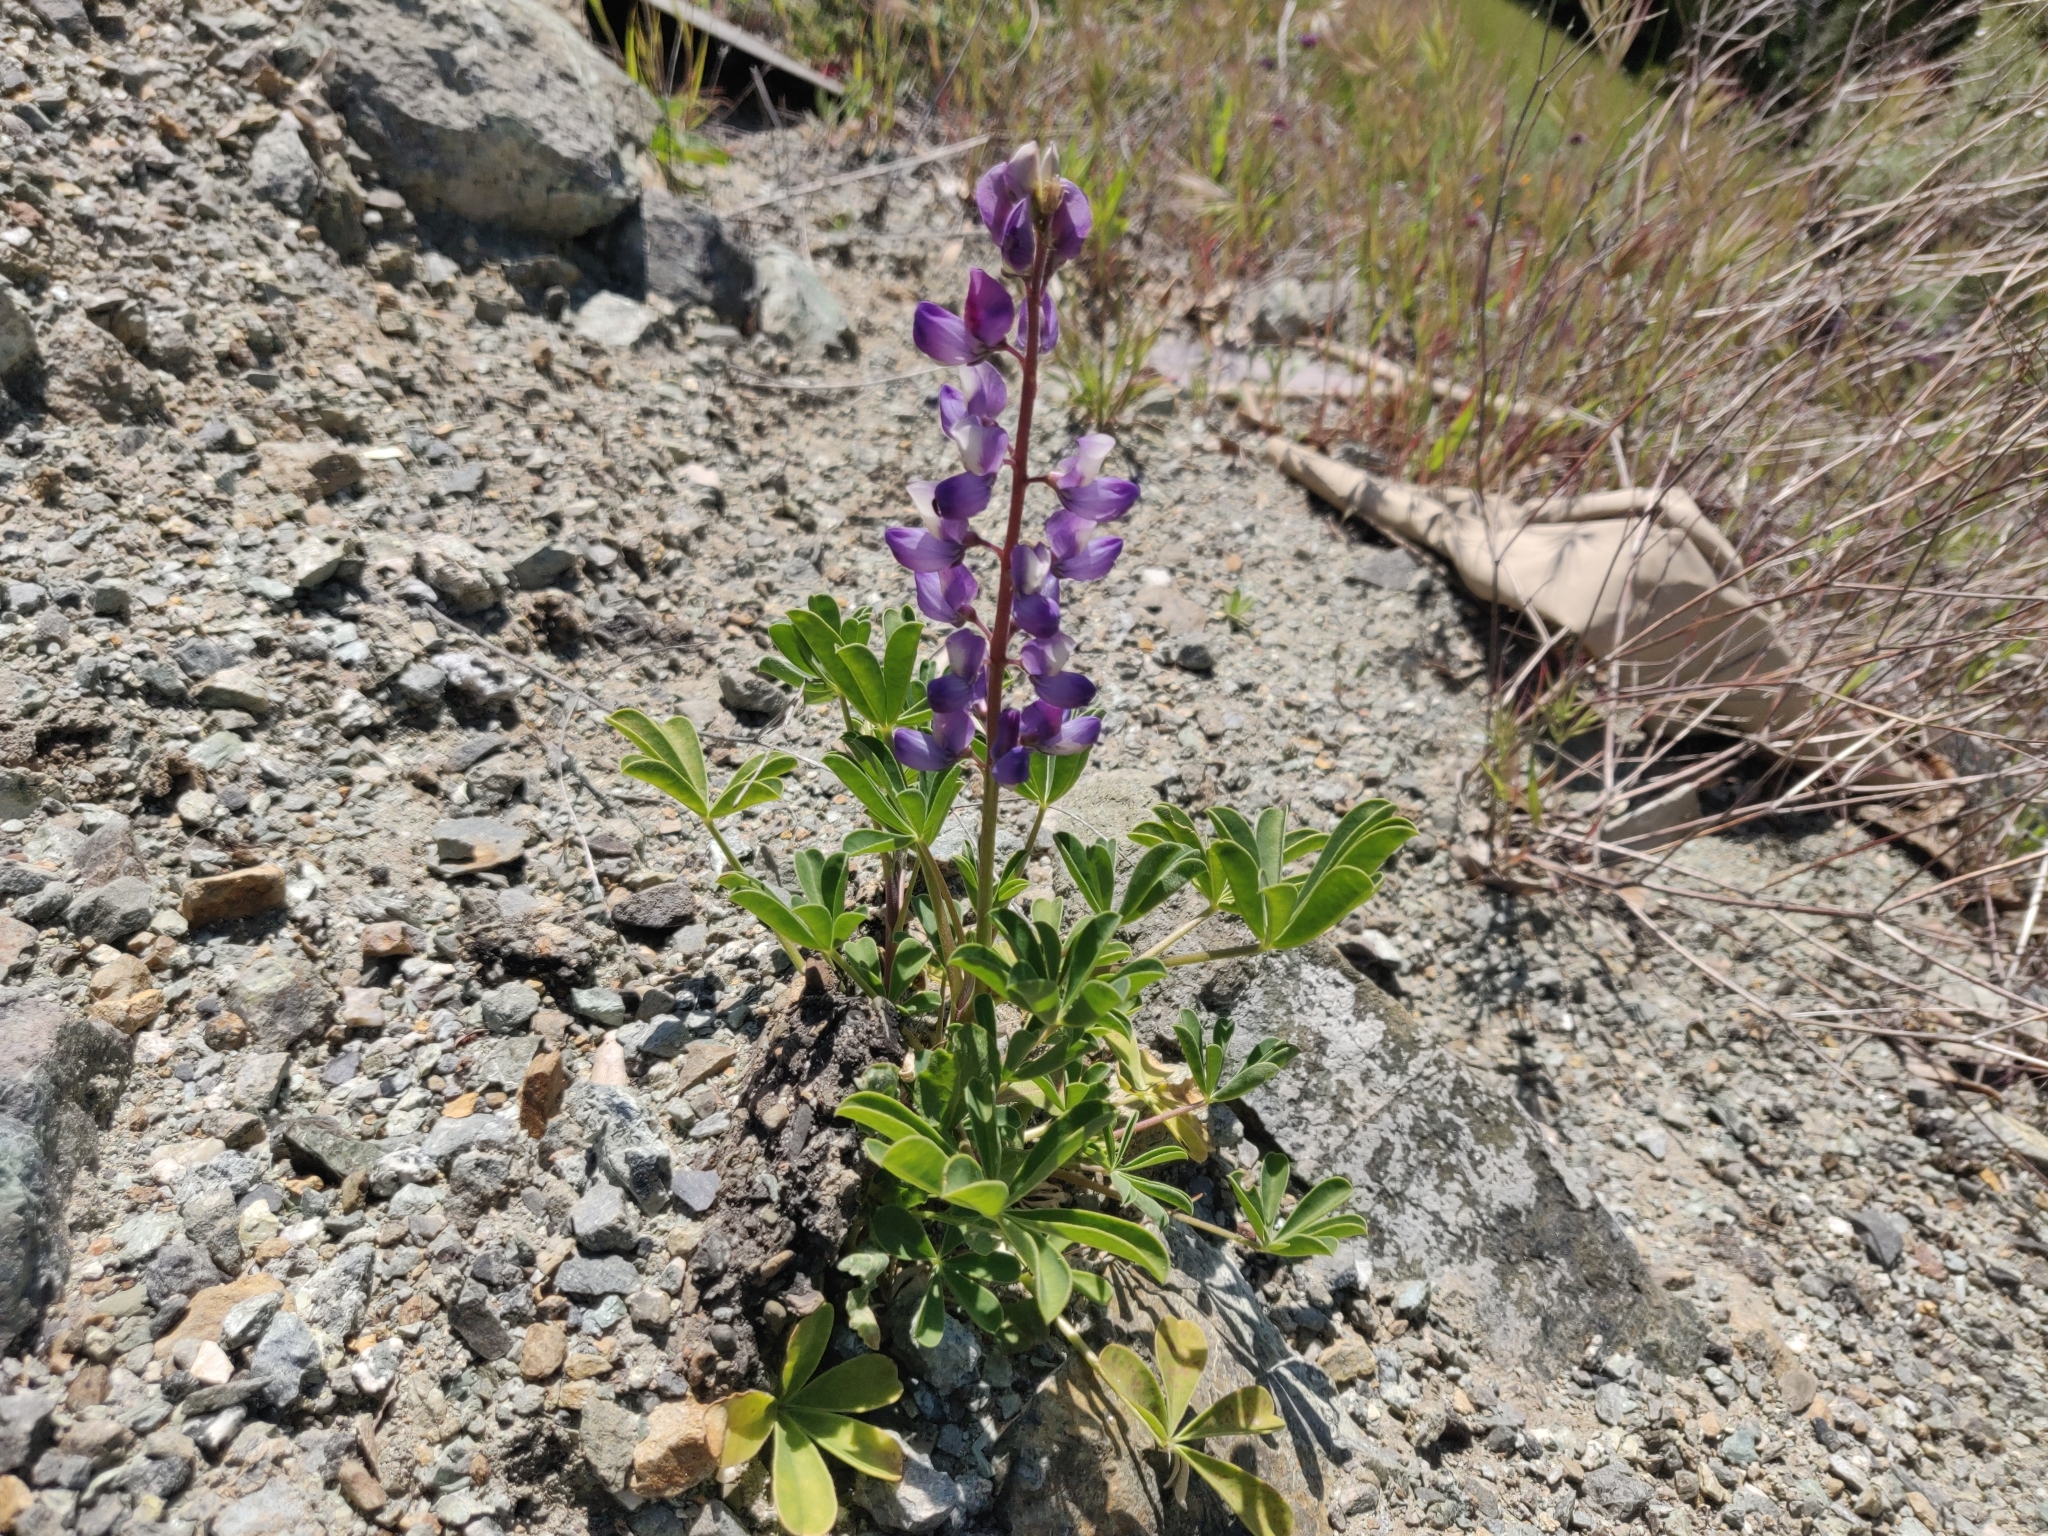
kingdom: Plantae
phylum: Tracheophyta
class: Magnoliopsida
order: Fabales
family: Fabaceae
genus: Lupinus
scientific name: Lupinus succulentus
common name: Arroyo lupine
